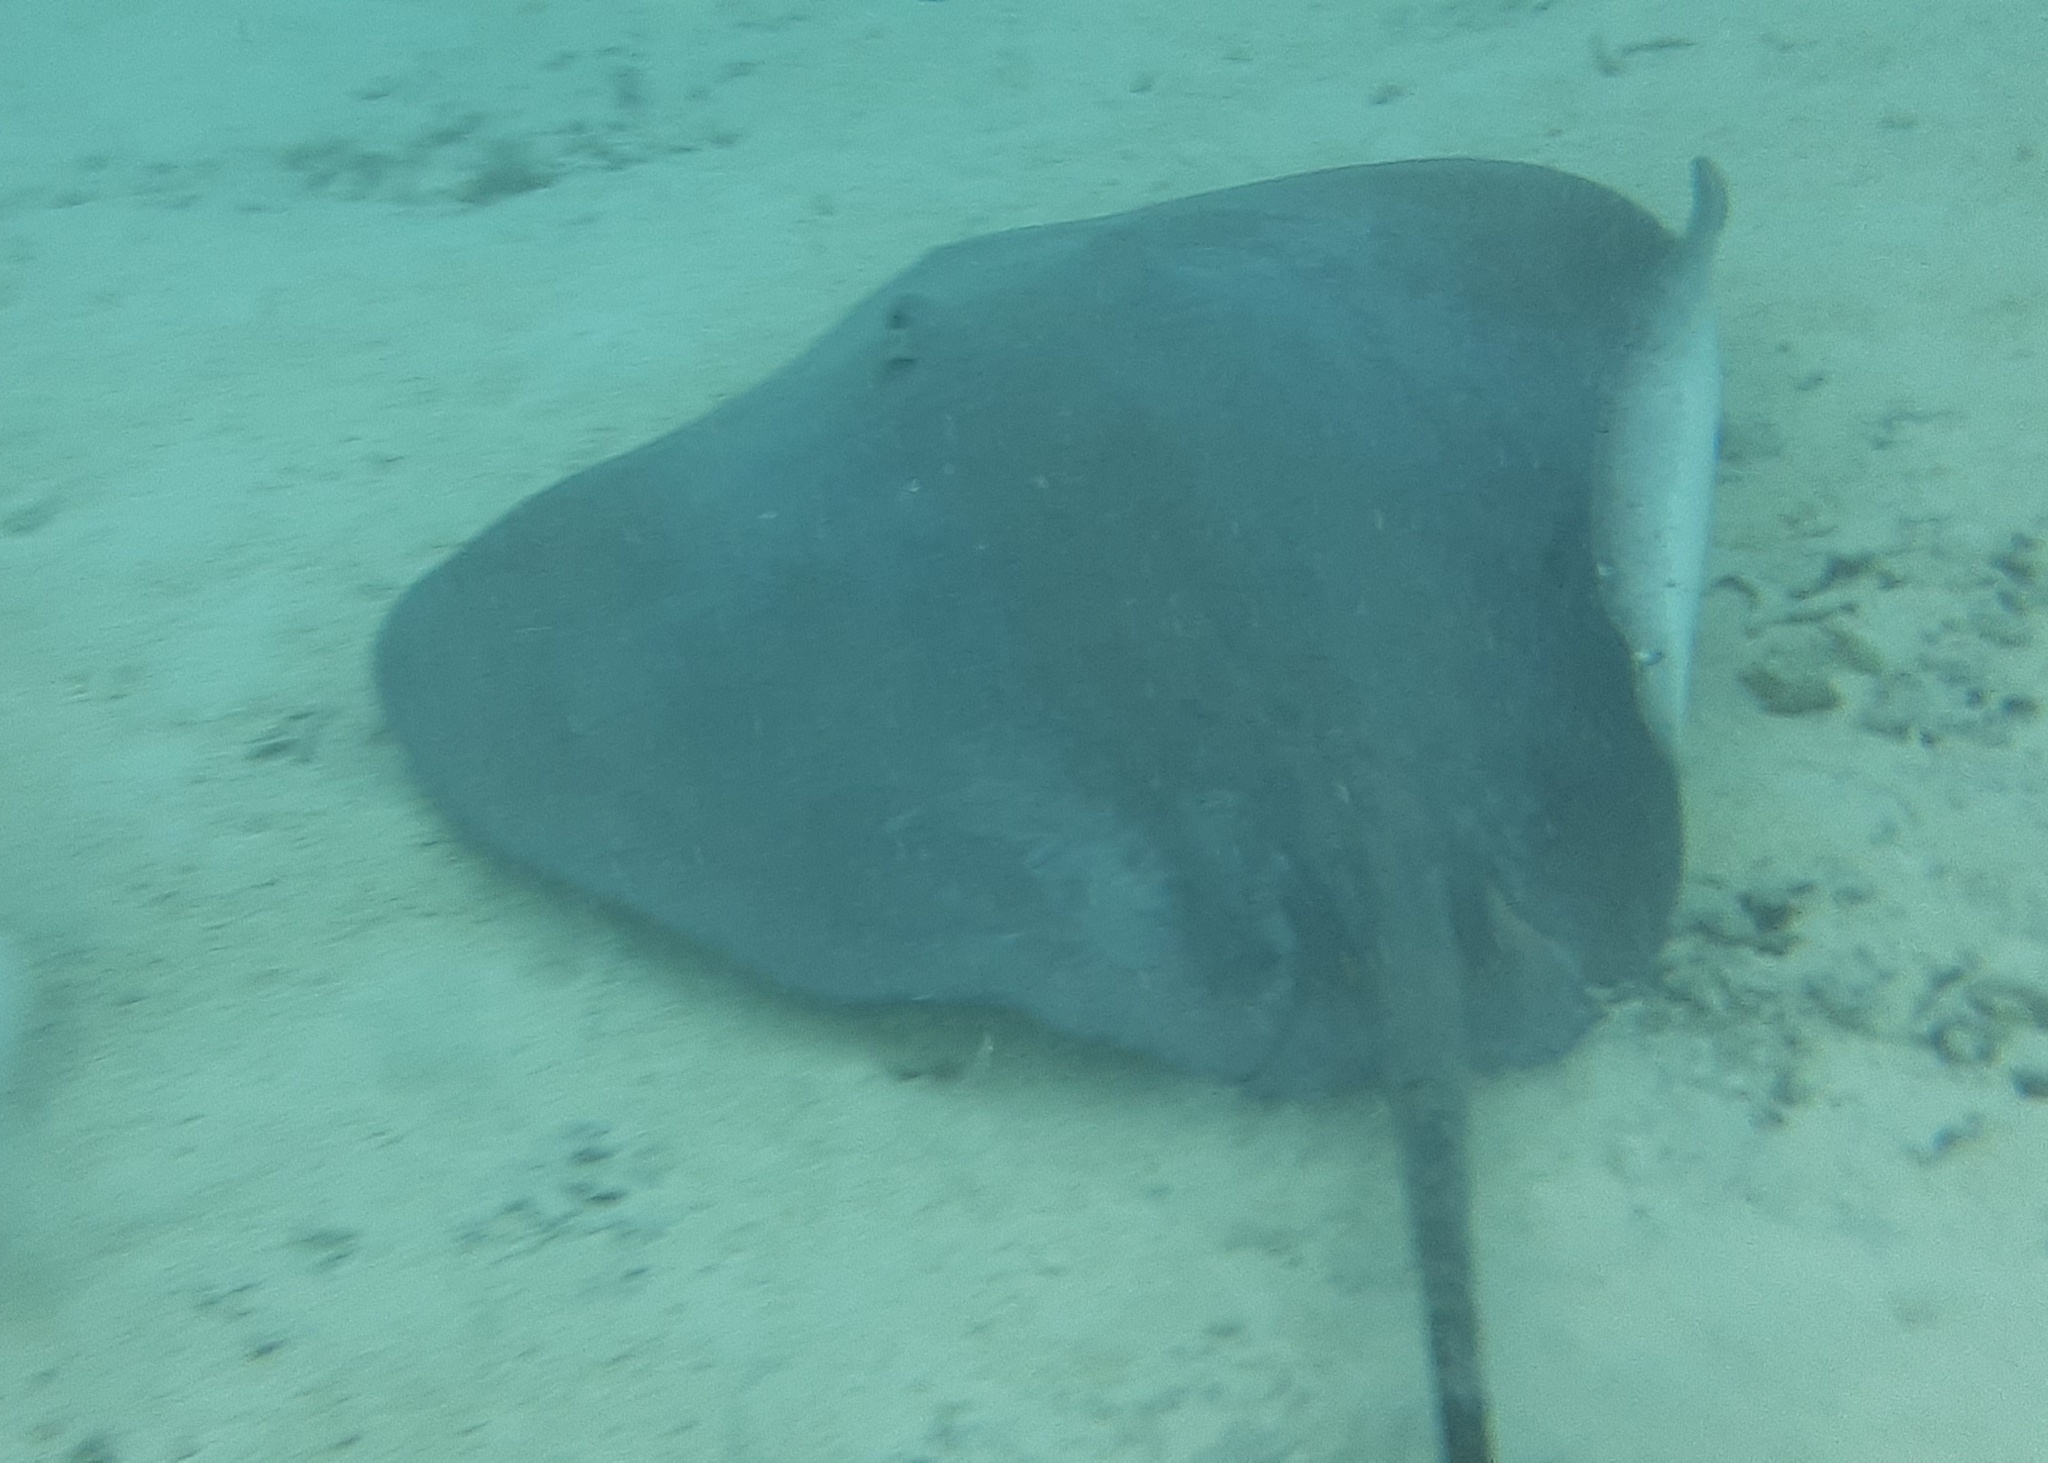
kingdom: Animalia
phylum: Chordata
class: Elasmobranchii
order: Myliobatiformes
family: Dasyatidae
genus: Pateobatis
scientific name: Pateobatis fai
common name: Pink whipray
